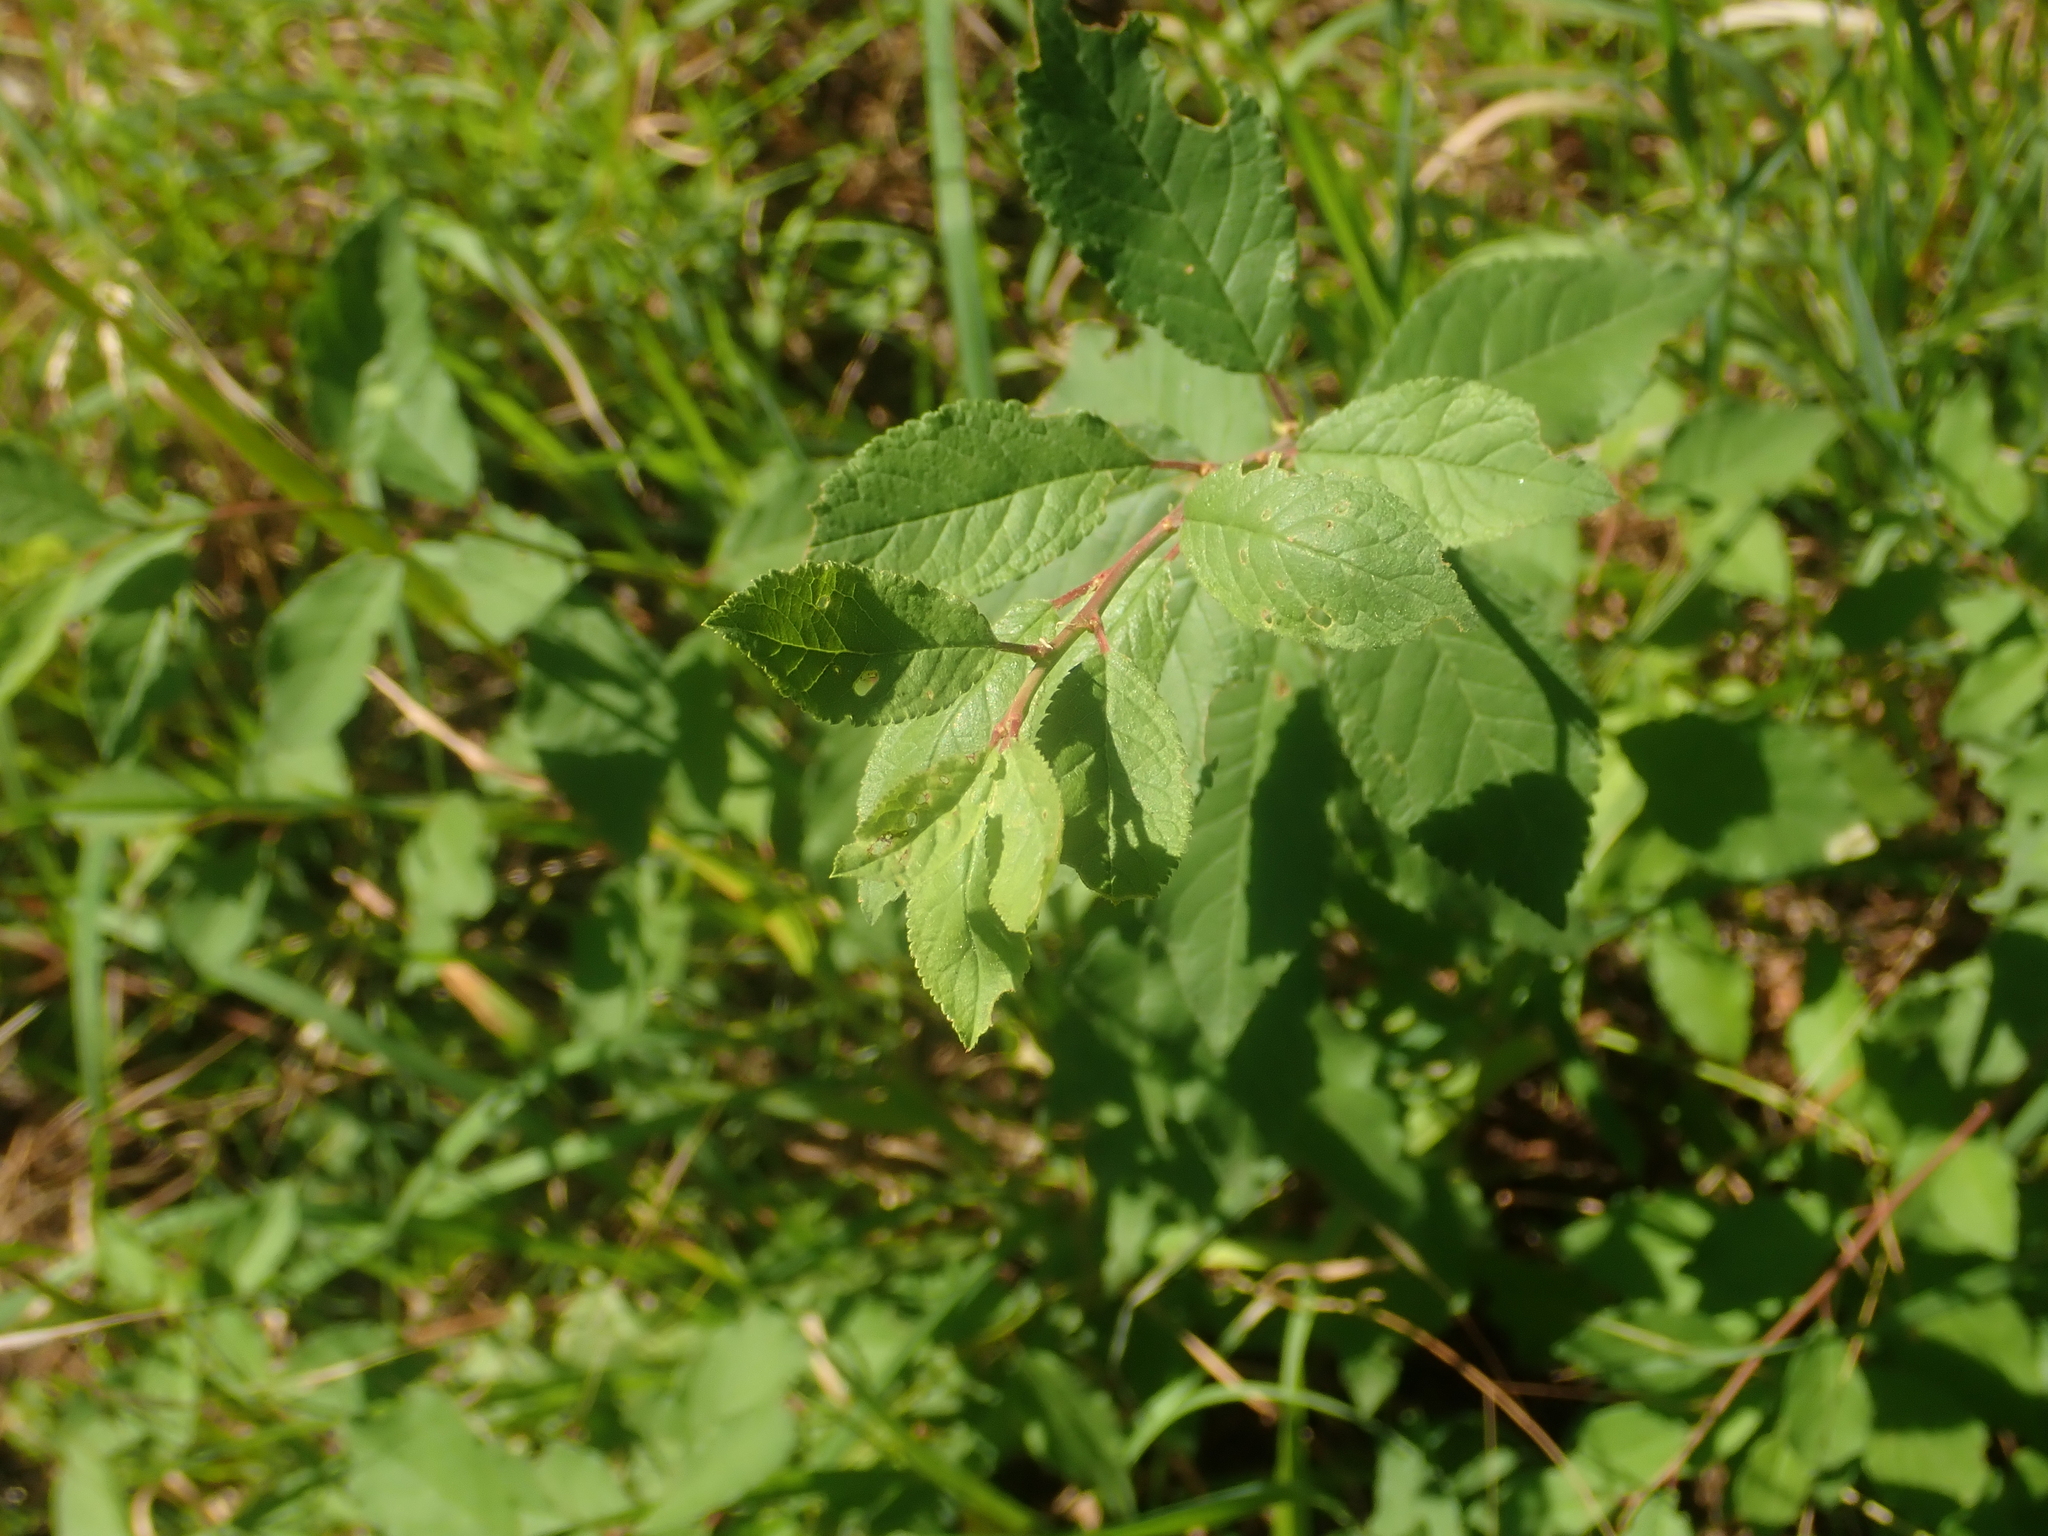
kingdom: Plantae
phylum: Tracheophyta
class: Magnoliopsida
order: Rosales
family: Rosaceae
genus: Prunus
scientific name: Prunus spinosa
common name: Blackthorn
